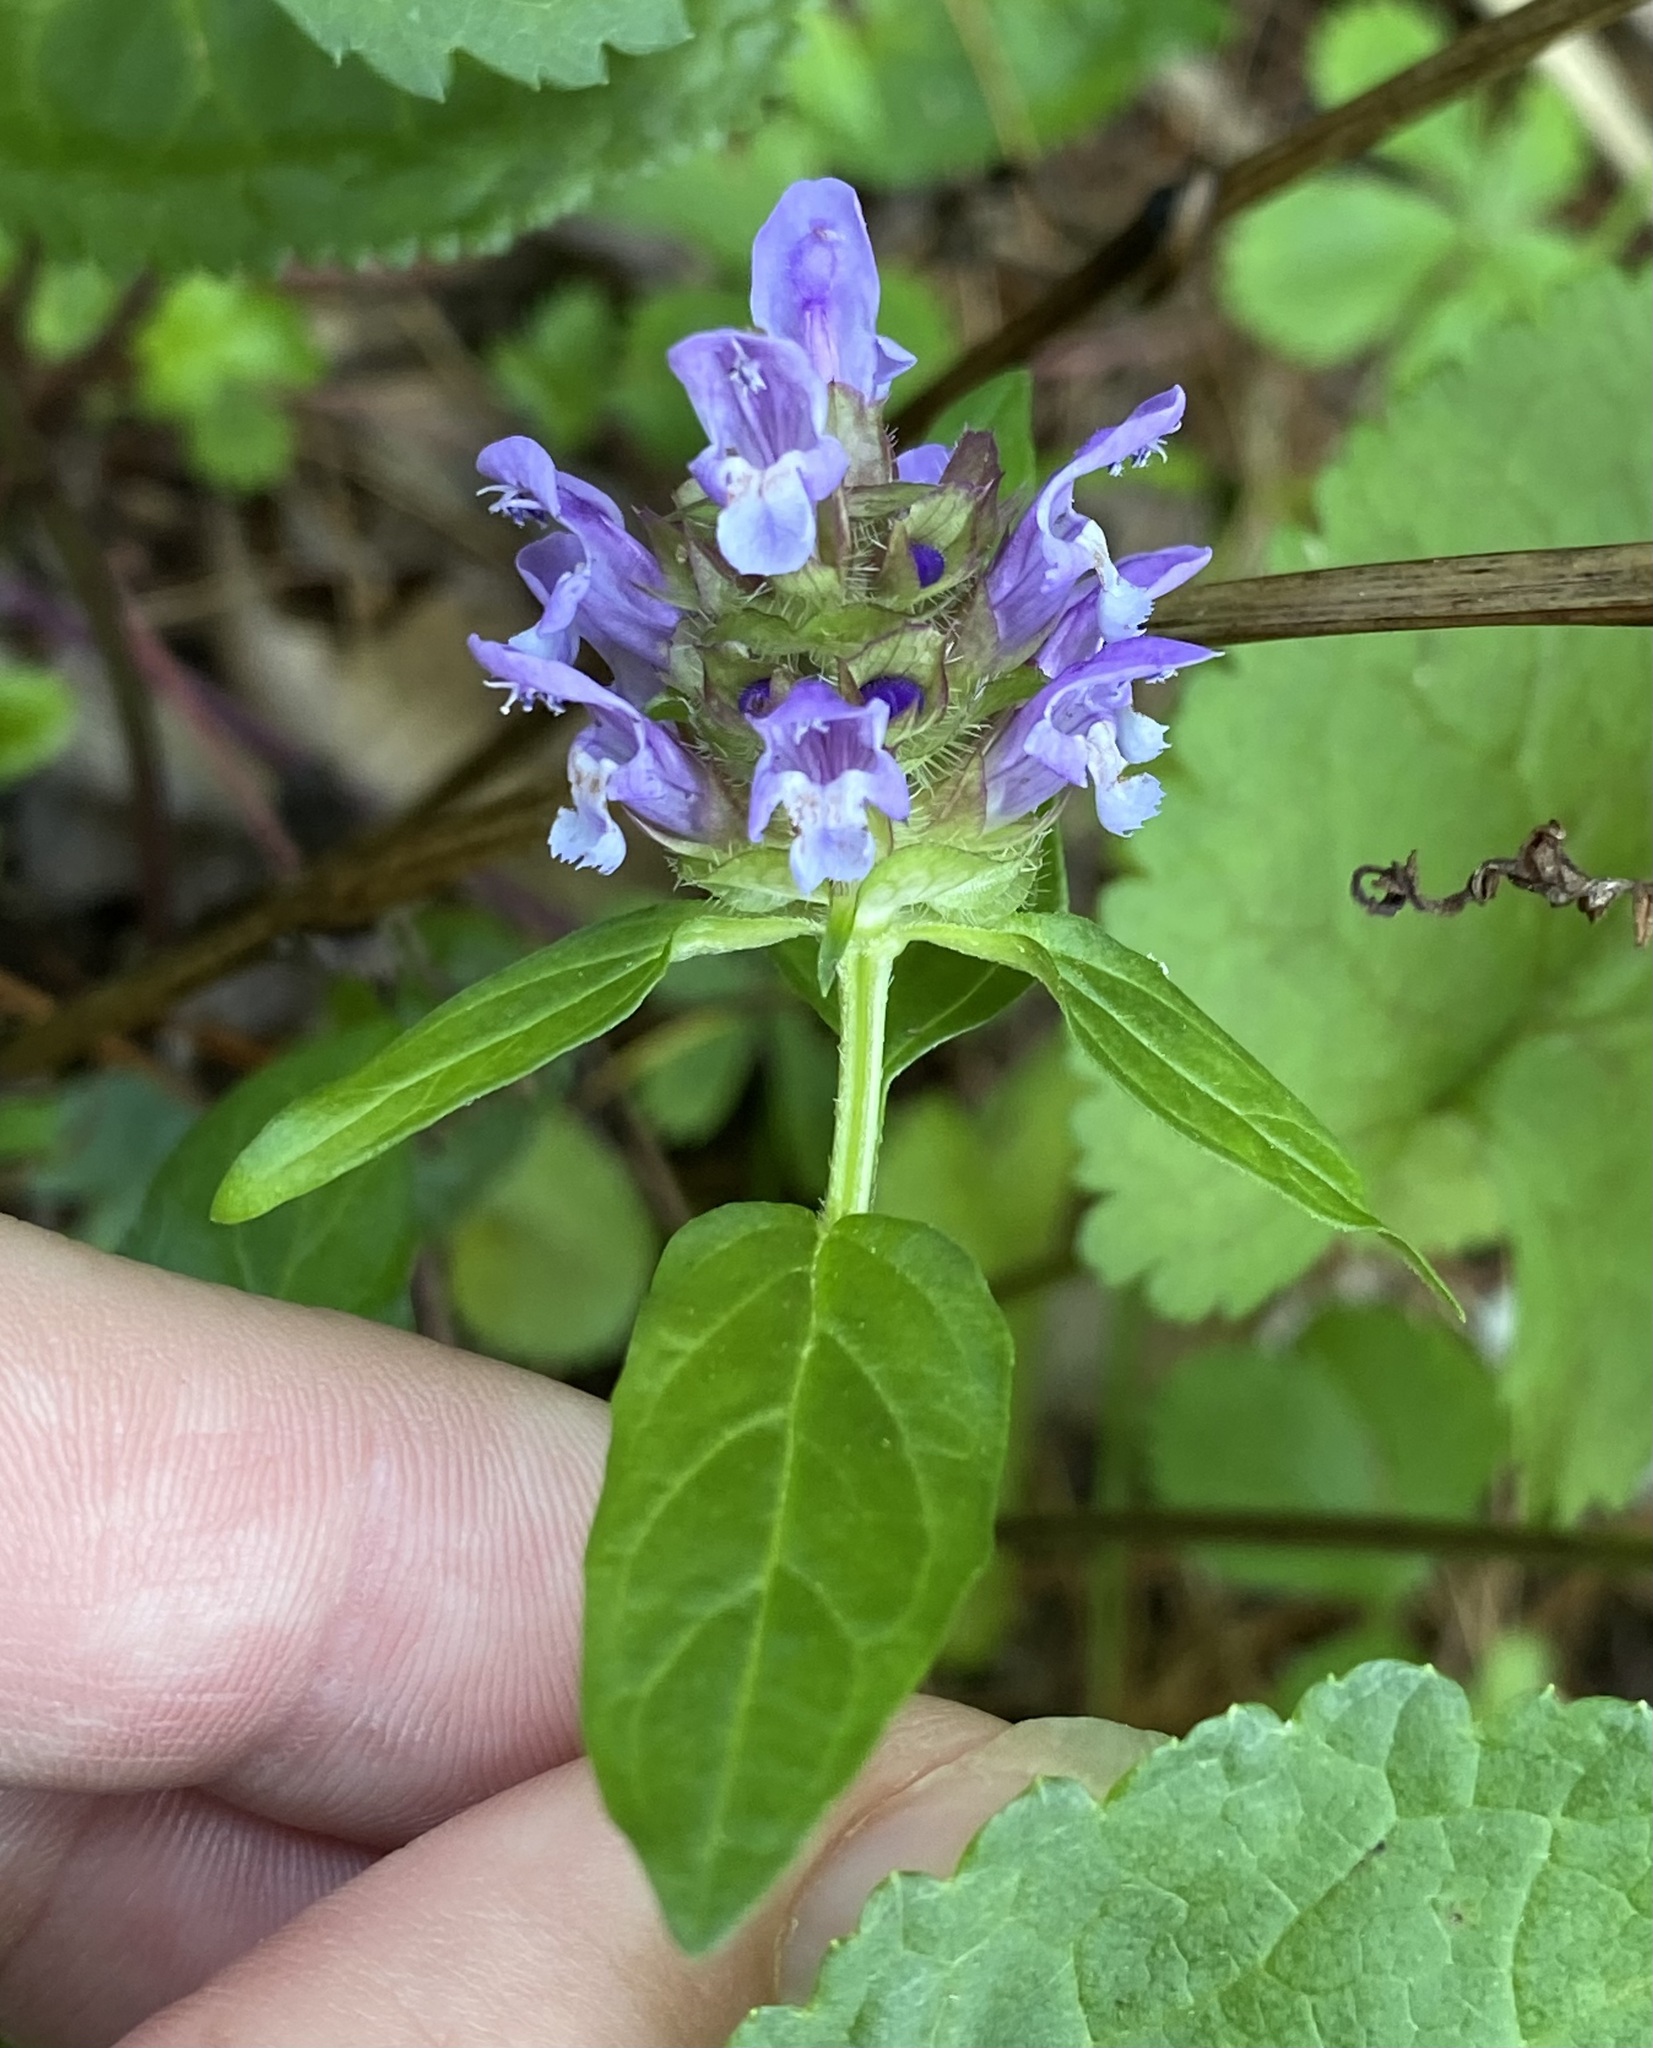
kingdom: Plantae
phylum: Tracheophyta
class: Magnoliopsida
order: Lamiales
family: Lamiaceae
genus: Prunella
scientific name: Prunella vulgaris
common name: Heal-all
